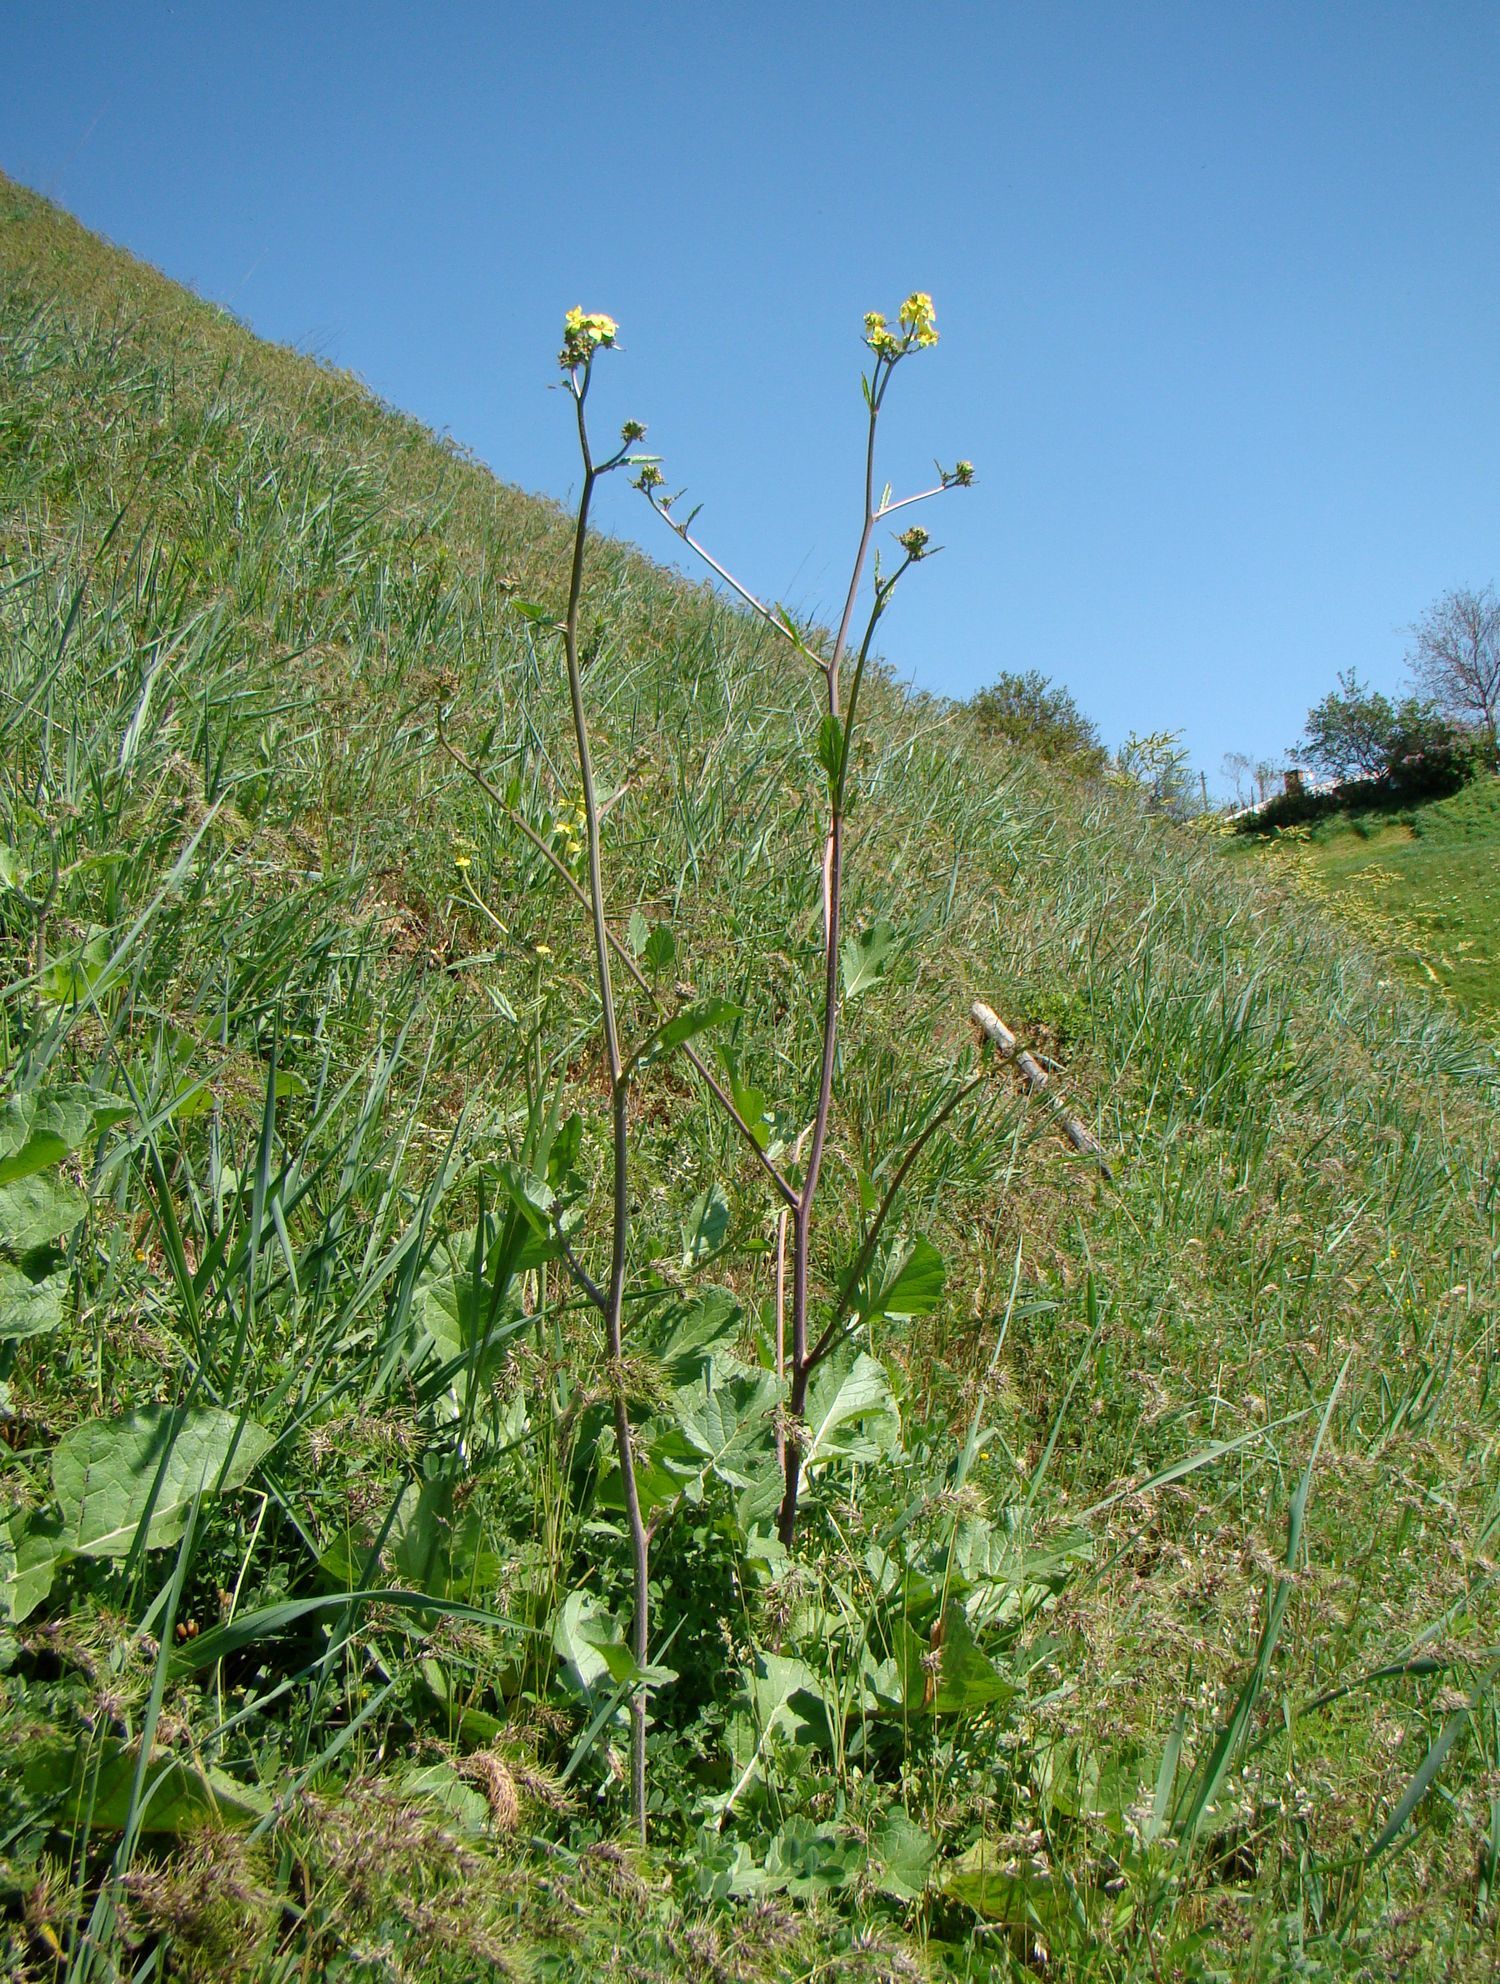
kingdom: Plantae
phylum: Tracheophyta
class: Magnoliopsida
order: Brassicales
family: Brassicaceae
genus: Rapistrum
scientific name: Rapistrum rugosum
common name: Annual bastardcabbage
